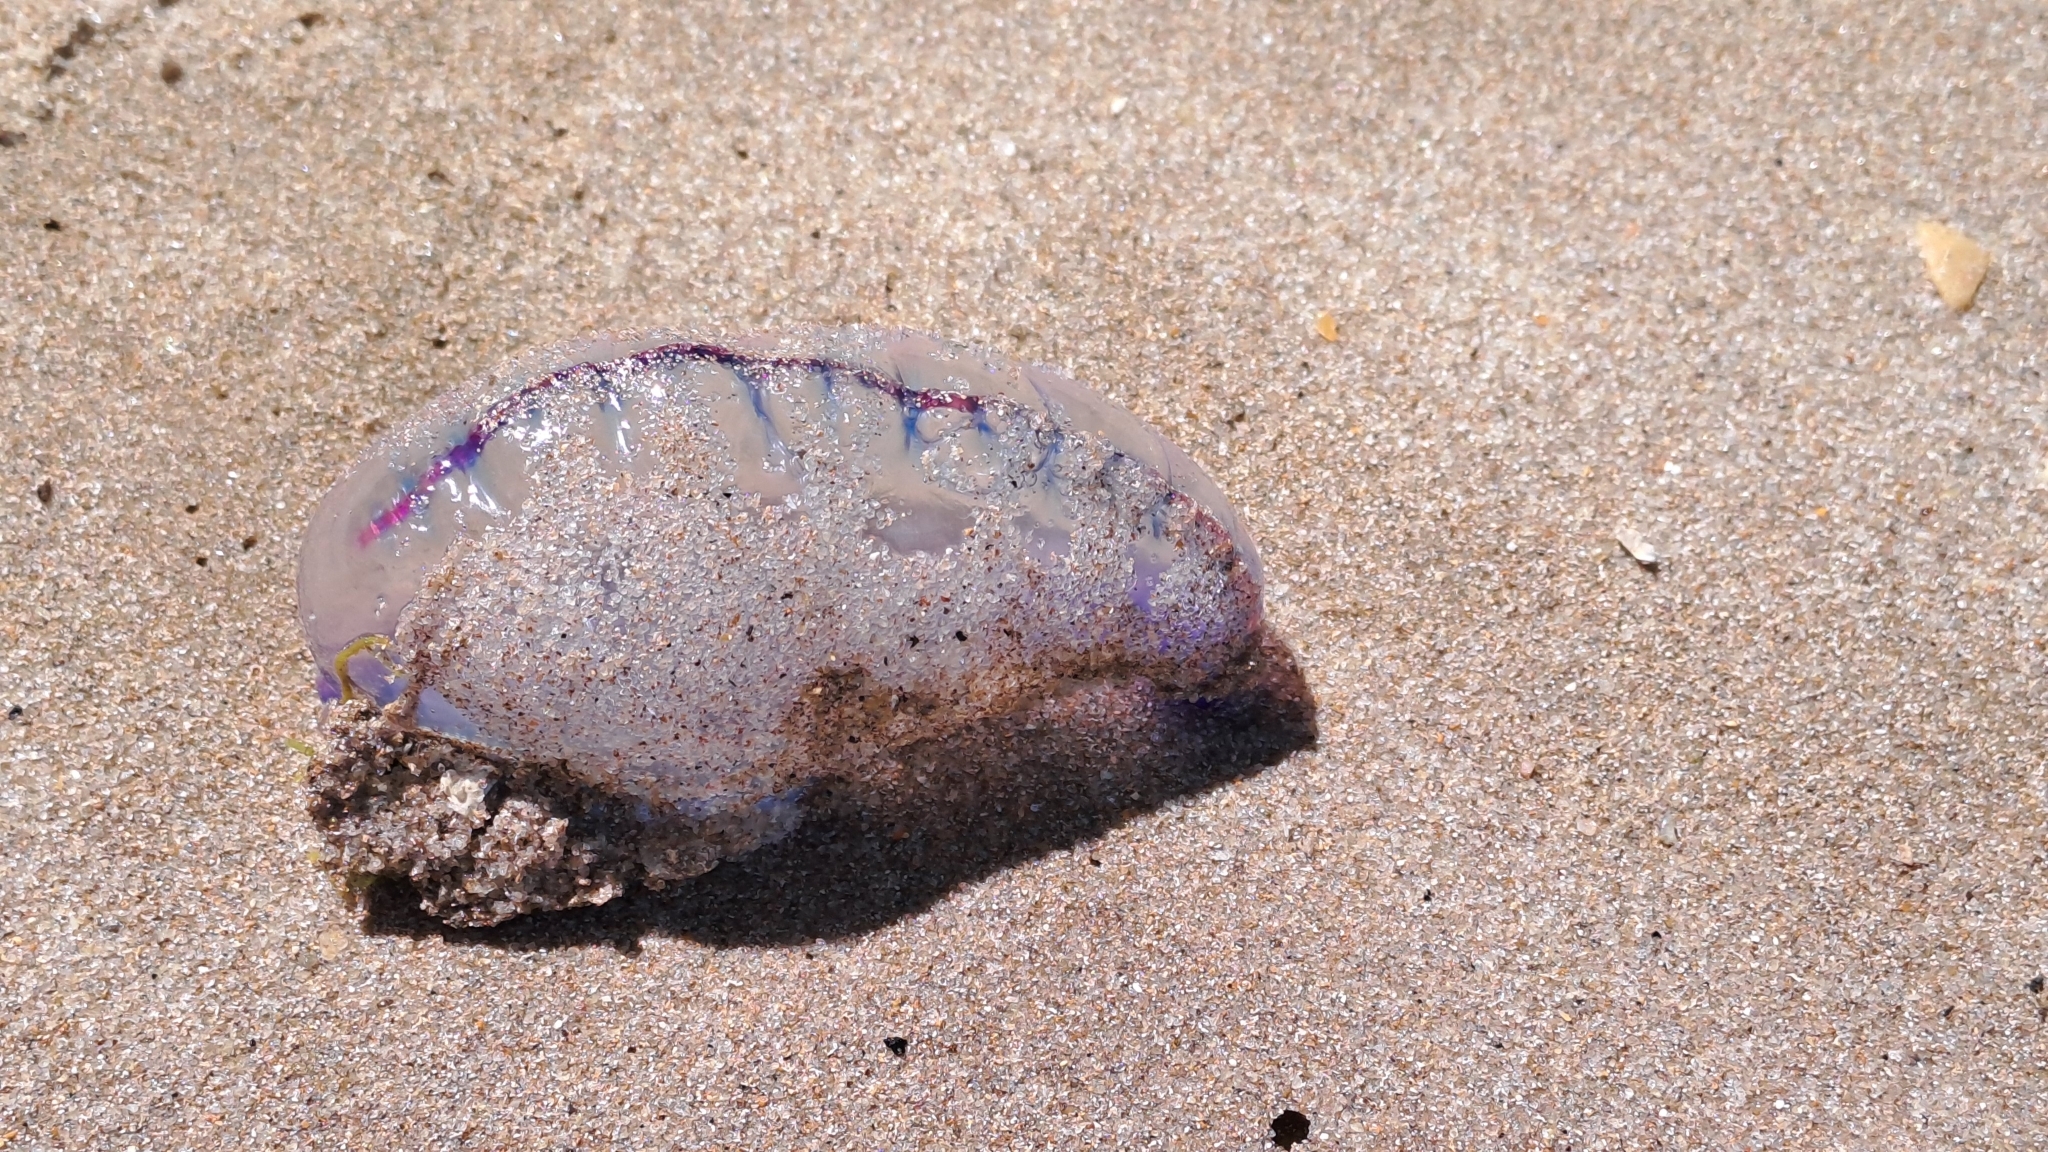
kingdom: Animalia
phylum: Cnidaria
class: Hydrozoa
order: Siphonophorae
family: Physaliidae
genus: Physalia
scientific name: Physalia physalis
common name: Portuguese man-of-war
